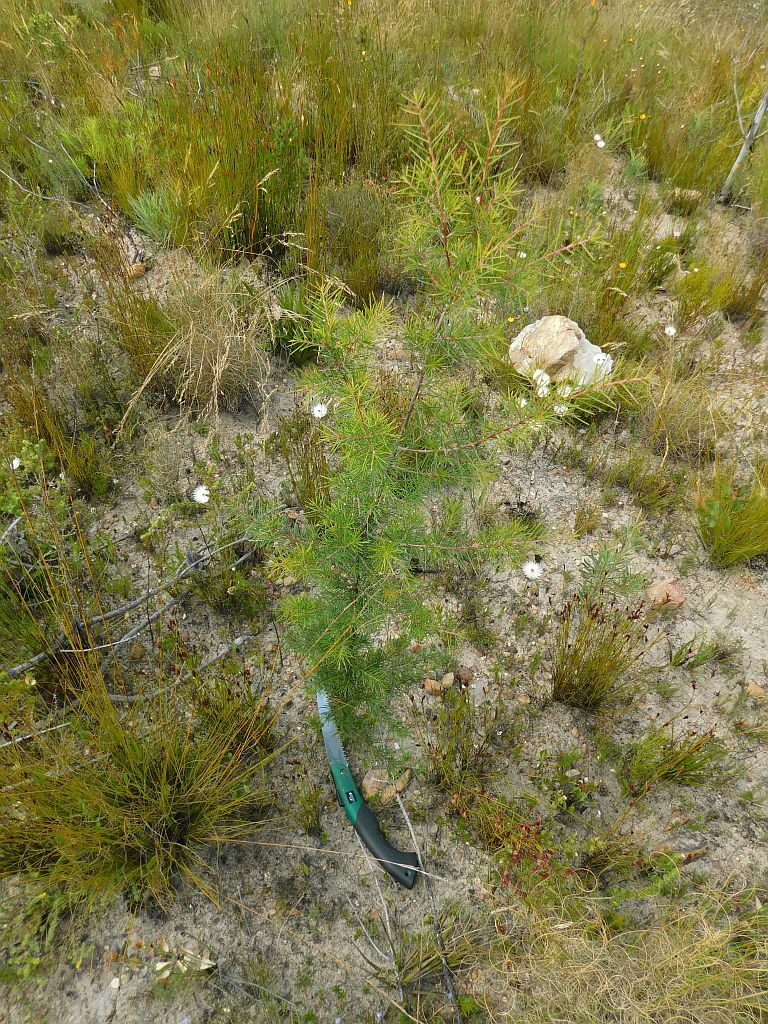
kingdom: Plantae
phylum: Tracheophyta
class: Magnoliopsida
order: Proteales
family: Proteaceae
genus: Hakea
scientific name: Hakea sericea
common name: Needle bush
